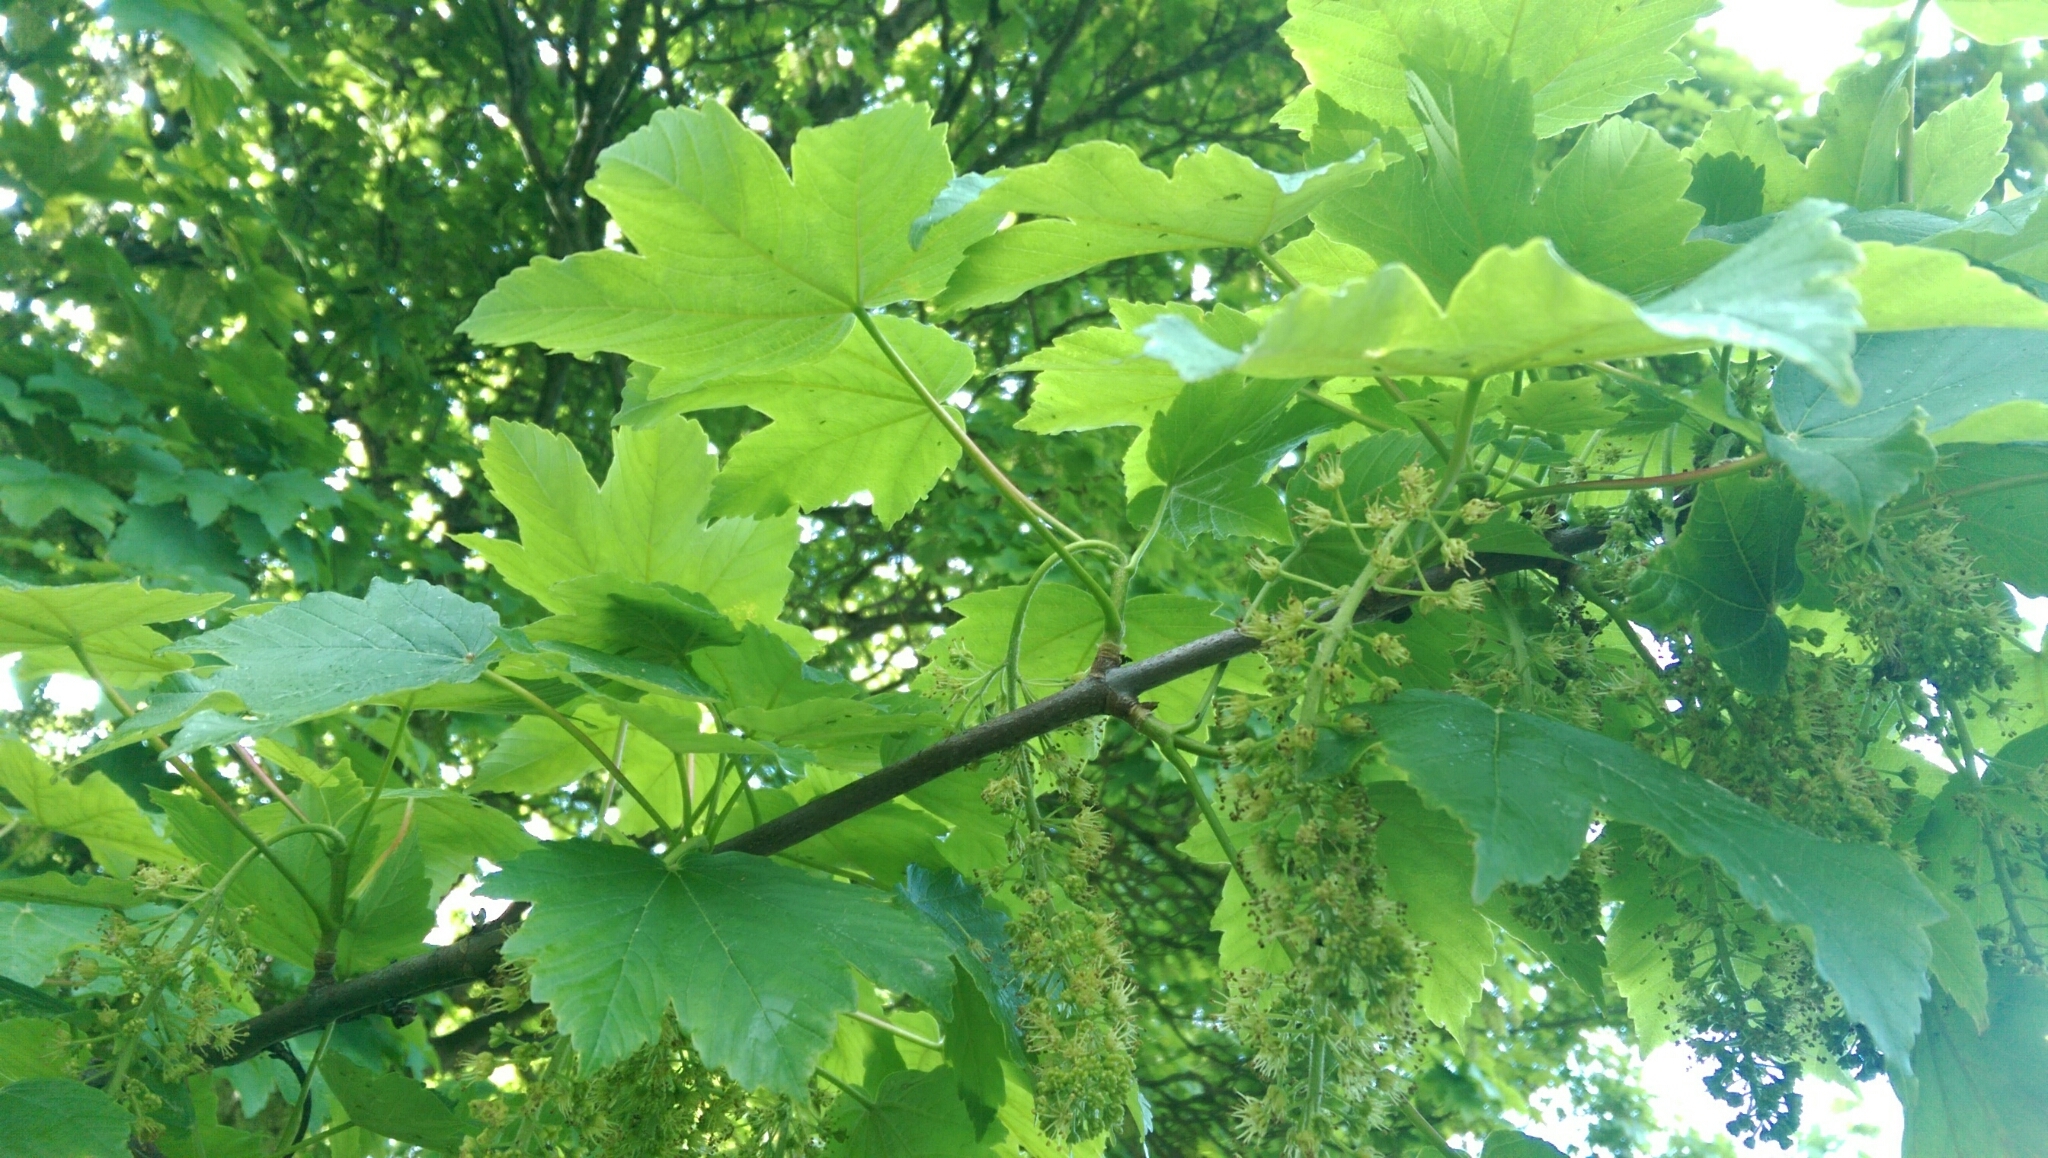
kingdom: Plantae
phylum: Tracheophyta
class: Magnoliopsida
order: Sapindales
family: Sapindaceae
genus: Acer
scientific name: Acer pseudoplatanus
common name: Sycamore
